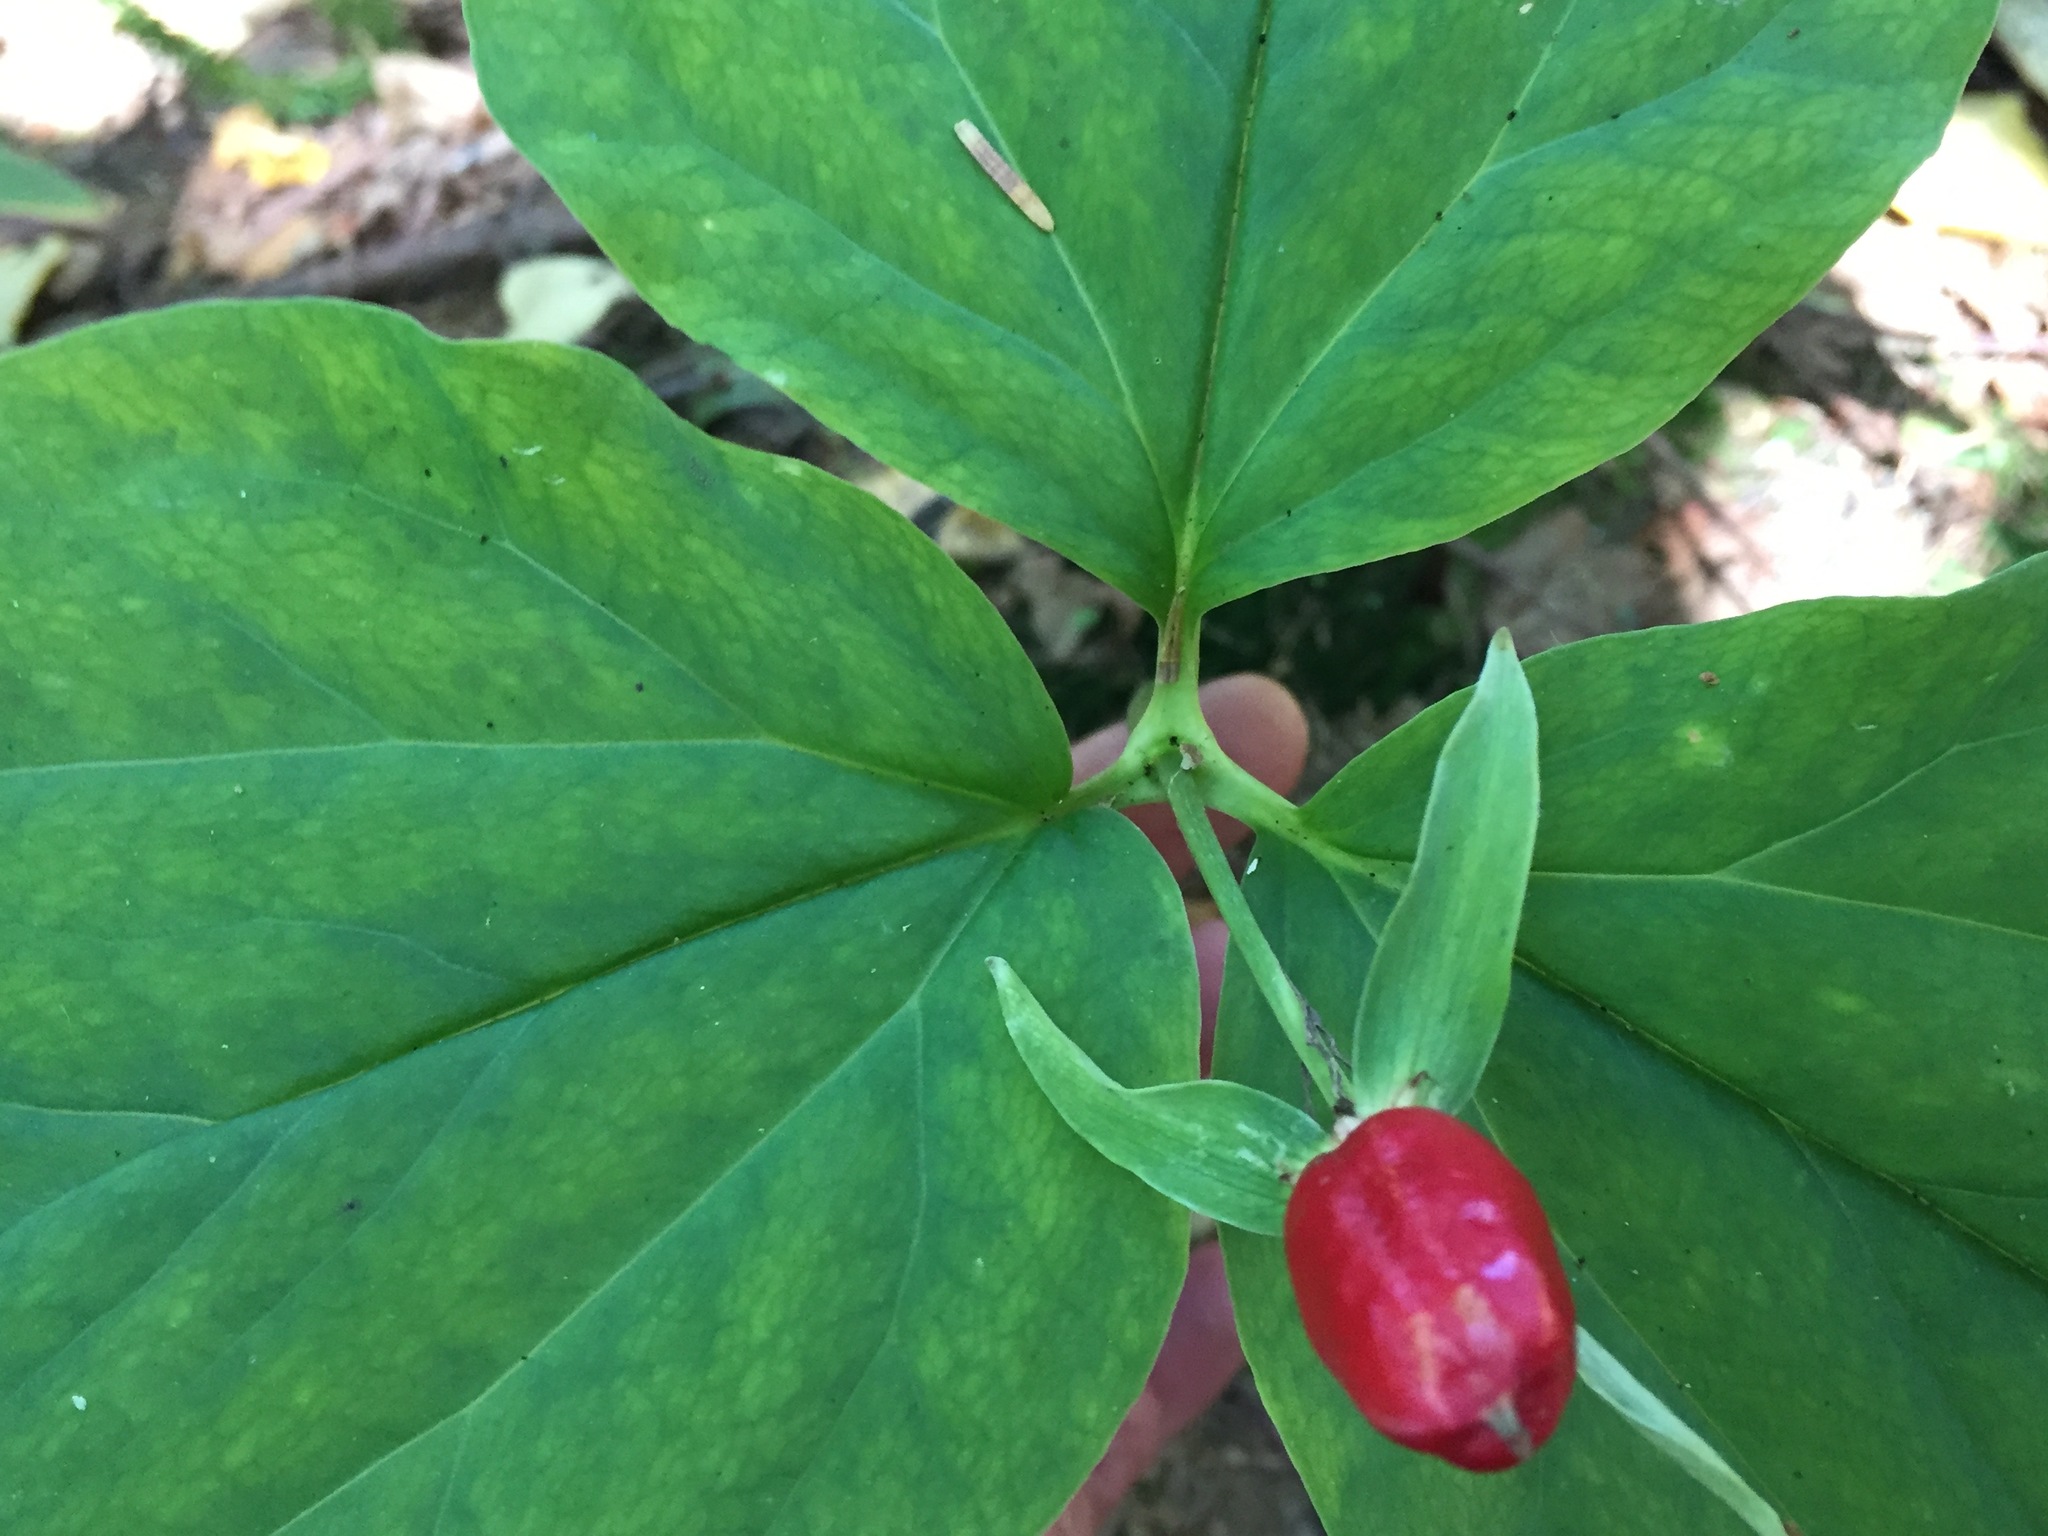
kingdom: Plantae
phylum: Tracheophyta
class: Liliopsida
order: Liliales
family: Melanthiaceae
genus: Trillium
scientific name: Trillium undulatum
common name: Paint trillium
